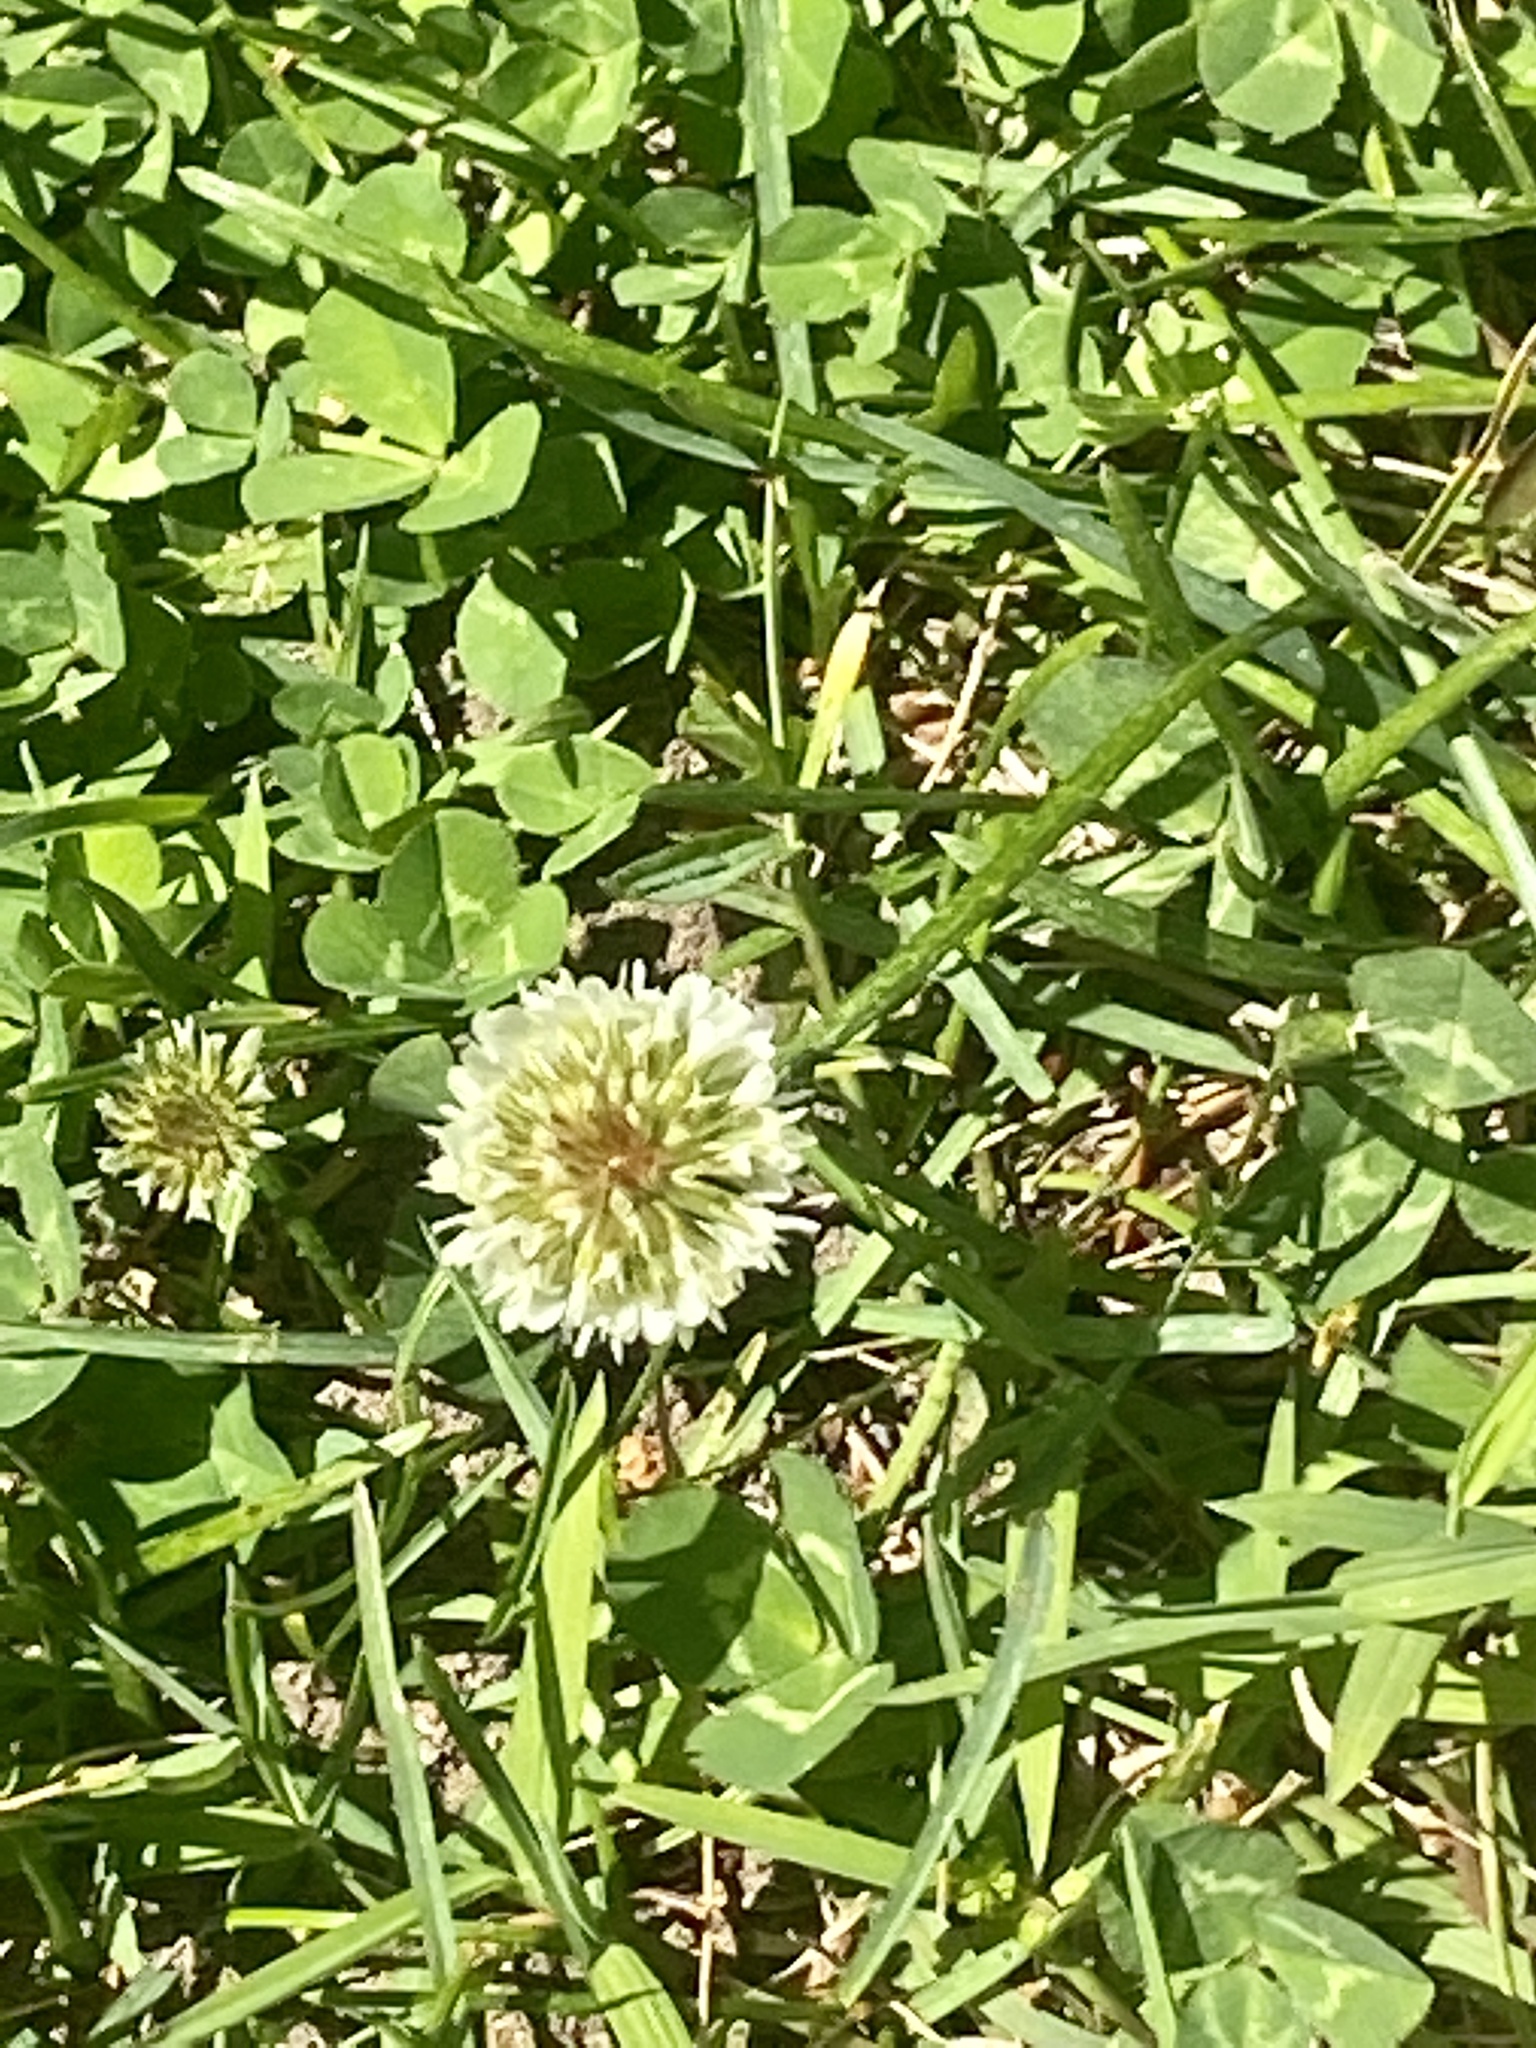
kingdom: Plantae
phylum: Tracheophyta
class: Magnoliopsida
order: Fabales
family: Fabaceae
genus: Trifolium
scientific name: Trifolium repens
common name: White clover
